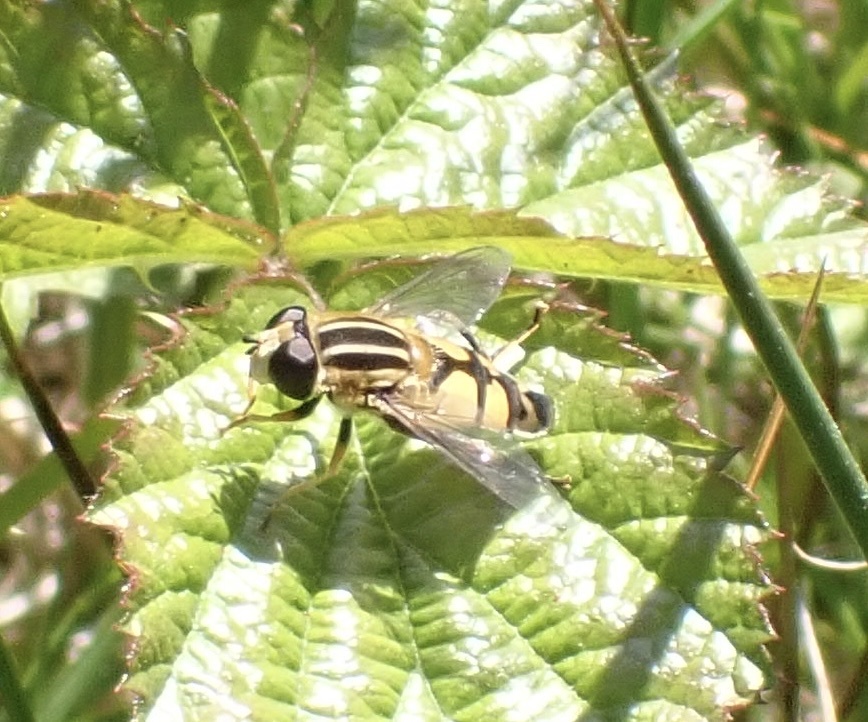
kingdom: Animalia
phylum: Arthropoda
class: Insecta
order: Diptera
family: Syrphidae
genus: Helophilus
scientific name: Helophilus trivittatus
